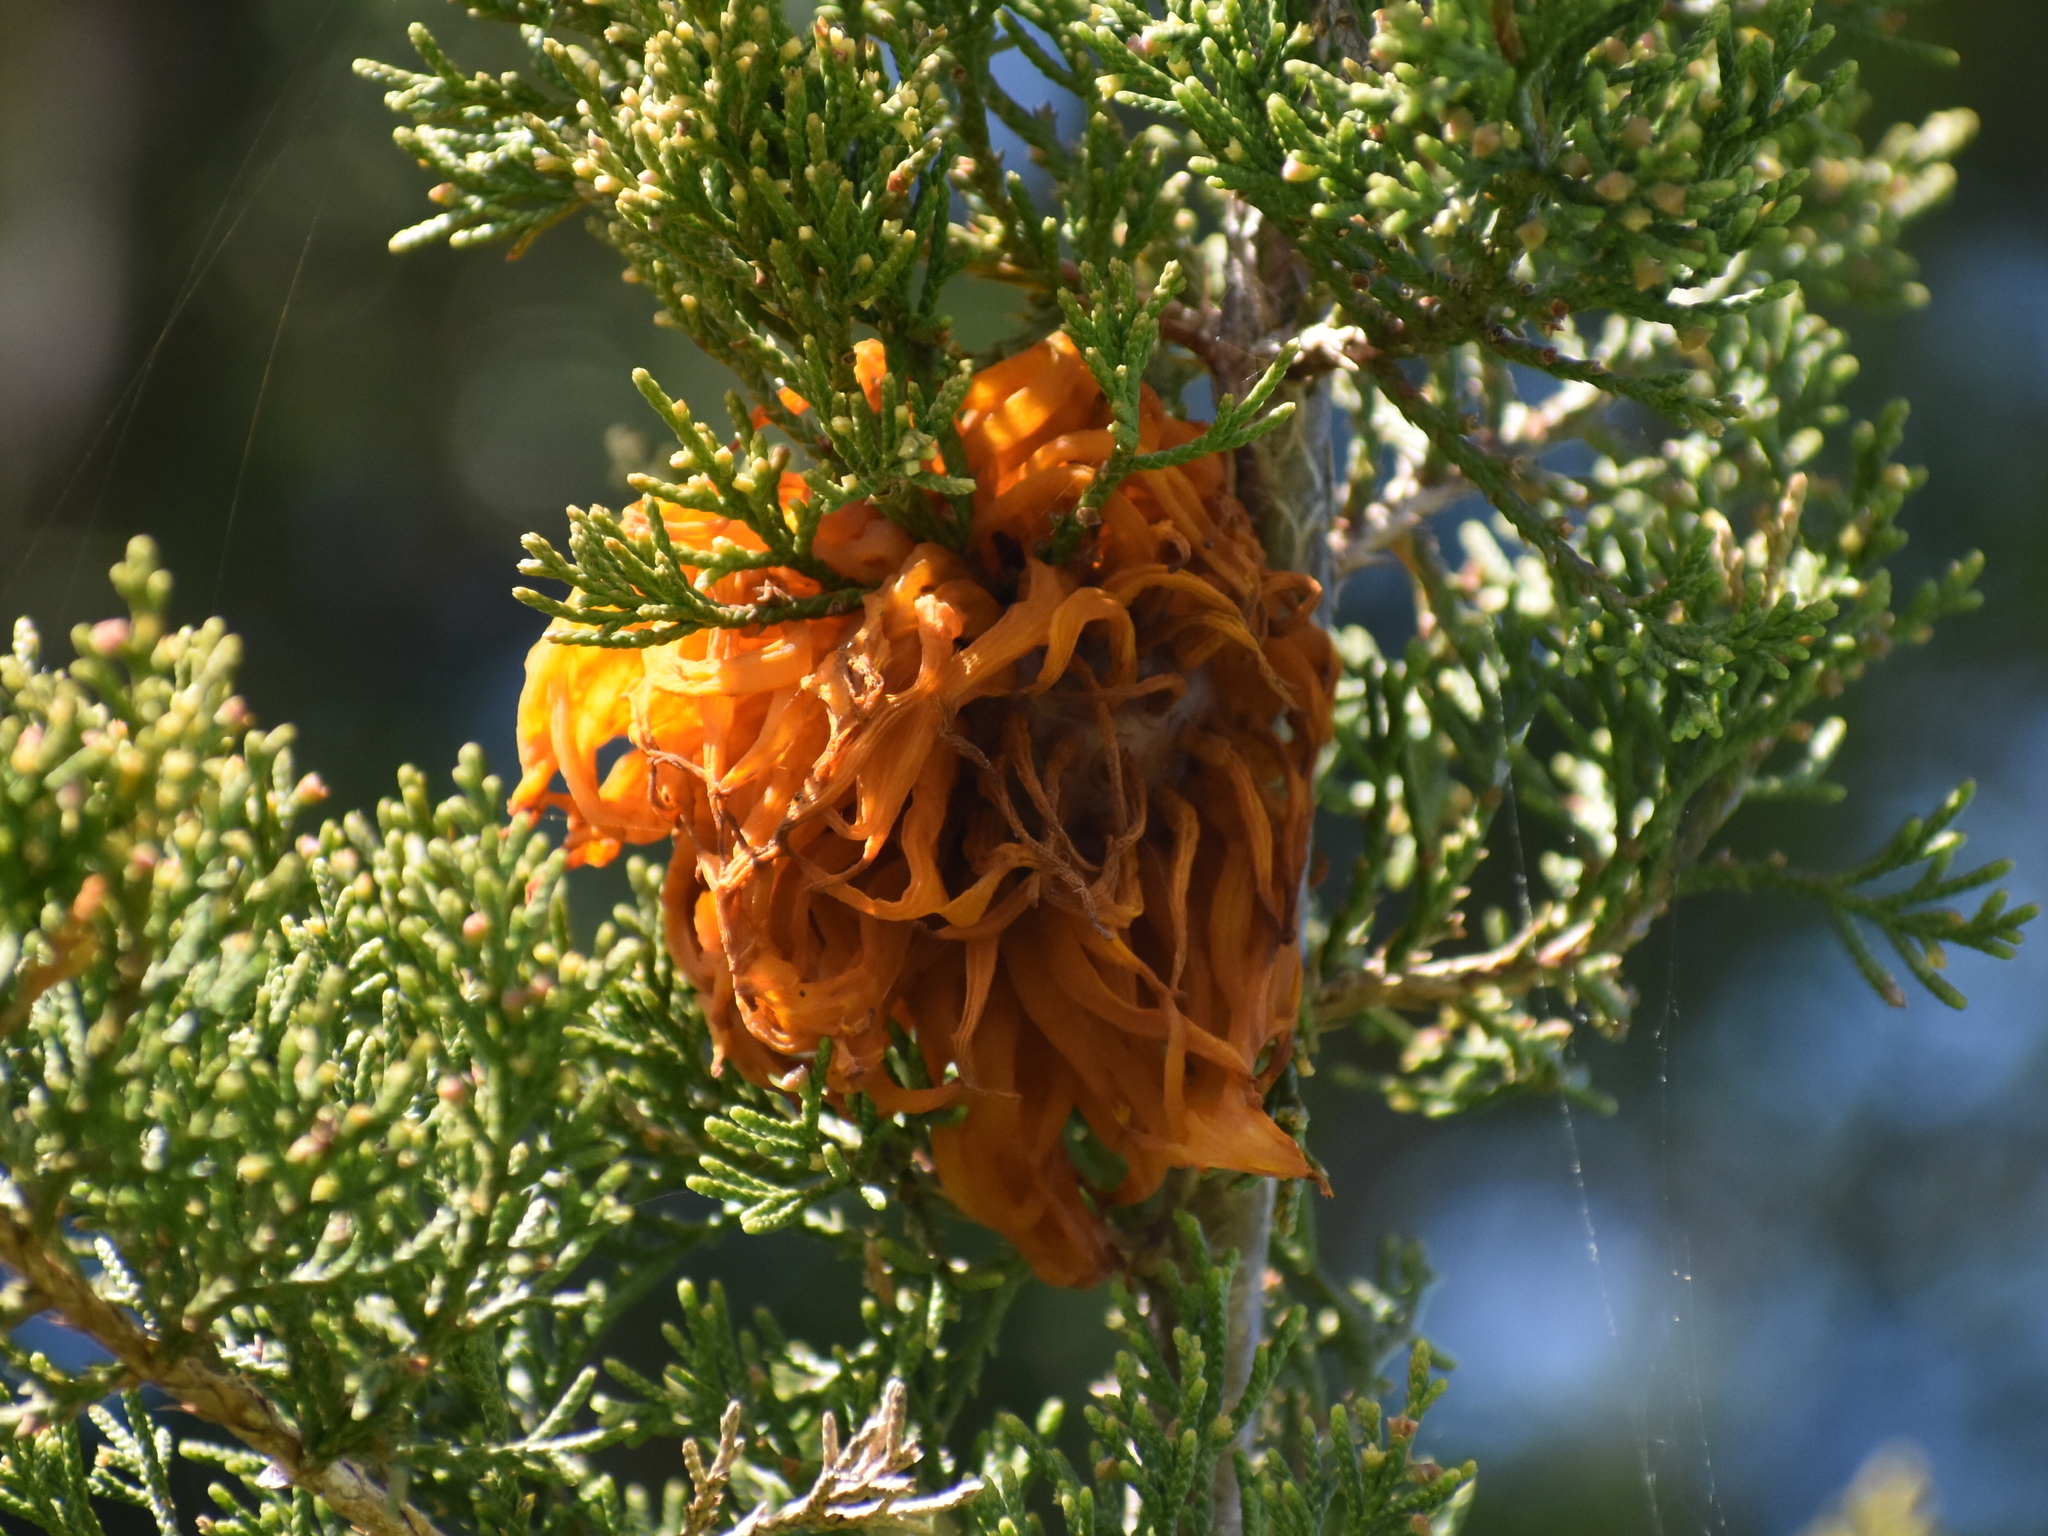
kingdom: Fungi
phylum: Basidiomycota
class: Pucciniomycetes
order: Pucciniales
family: Gymnosporangiaceae
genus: Gymnosporangium
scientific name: Gymnosporangium juniperi-virginianae
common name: Juniper-apple rust
